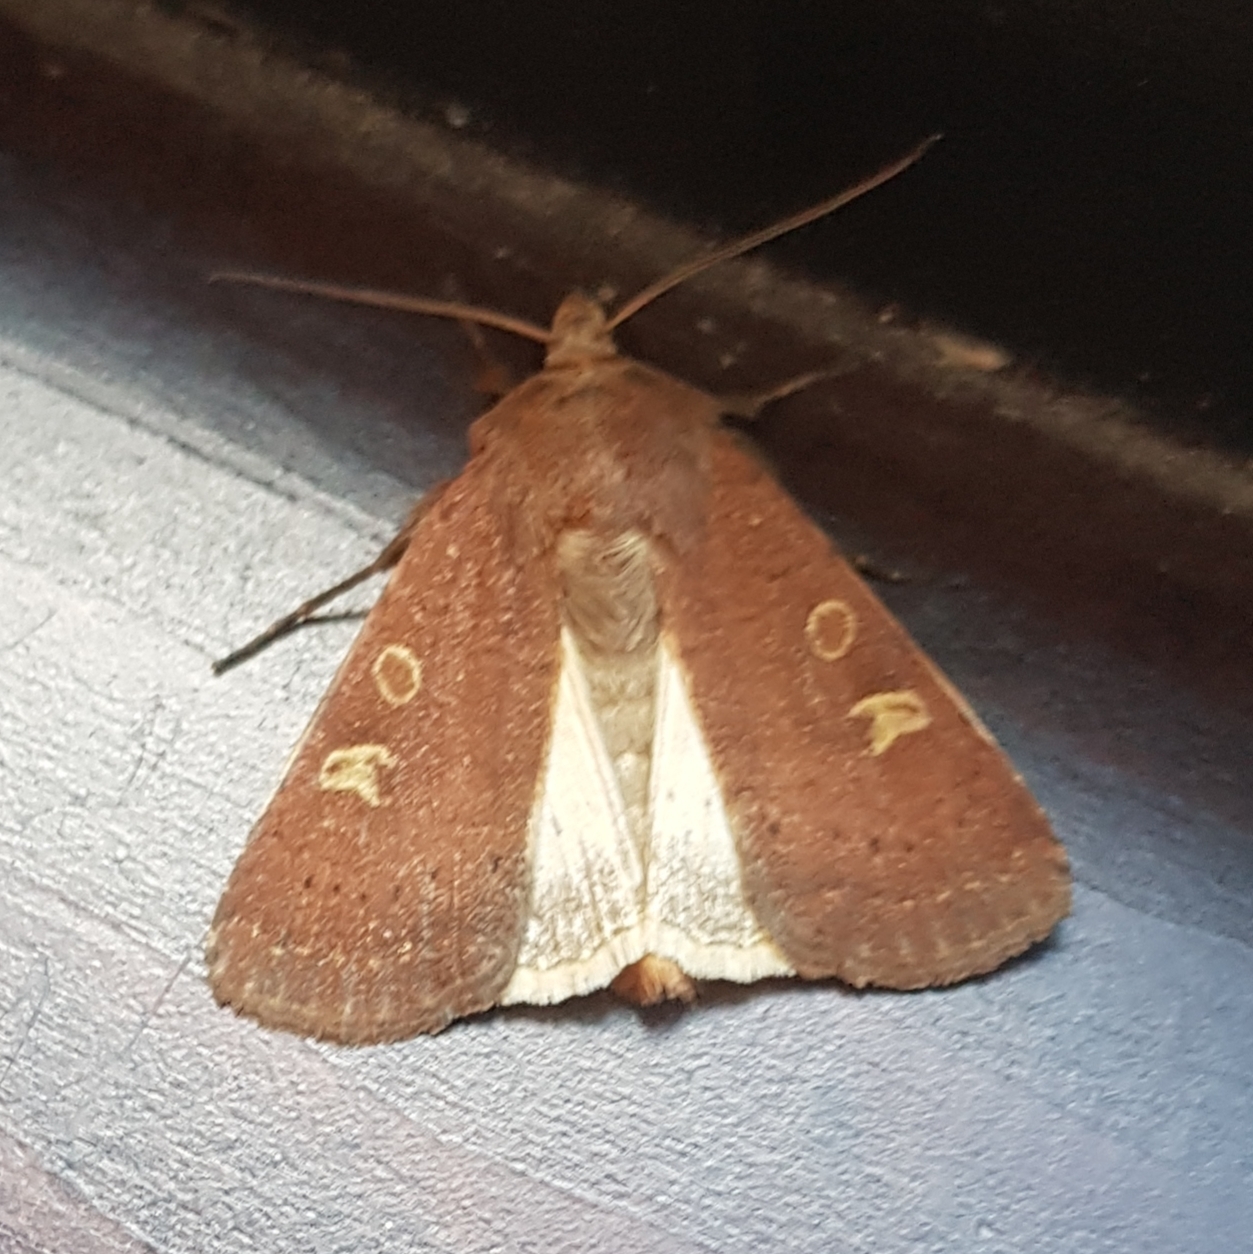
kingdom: Animalia
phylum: Arthropoda
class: Insecta
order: Lepidoptera
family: Noctuidae
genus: Xestia
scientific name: Xestia xanthographa
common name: Square-spot rustic
